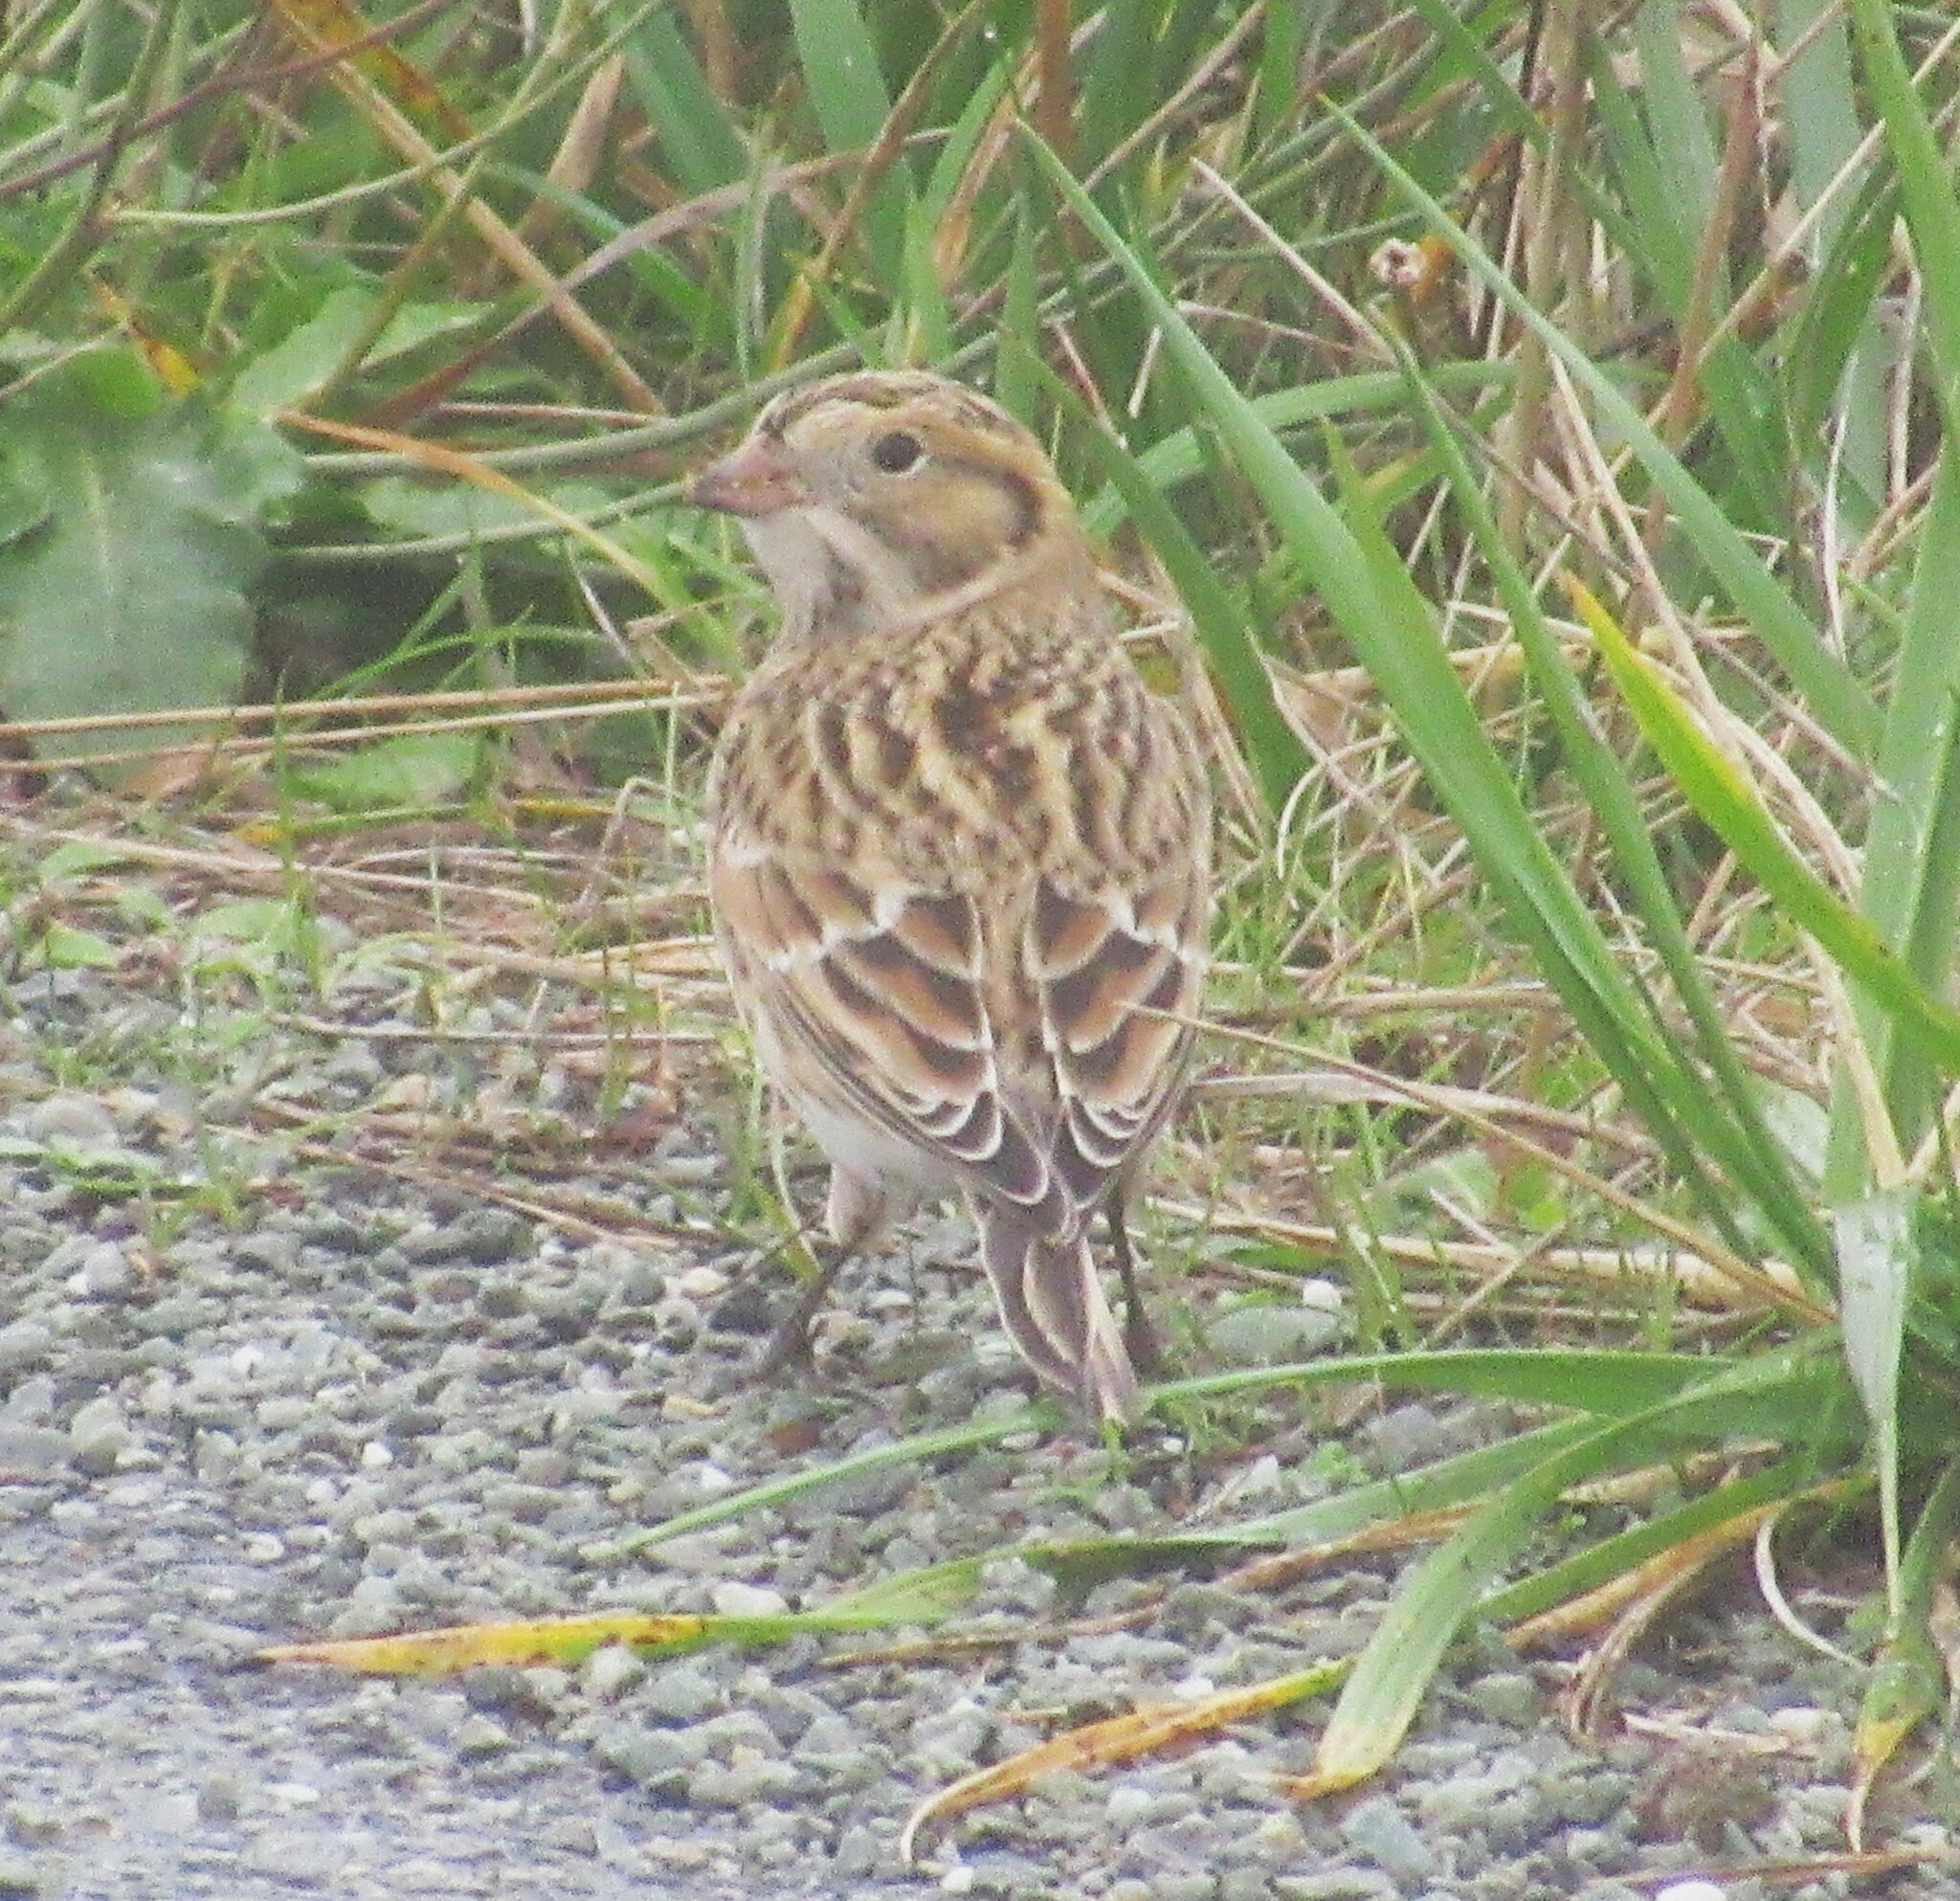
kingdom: Animalia
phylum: Chordata
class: Aves
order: Passeriformes
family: Calcariidae
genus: Calcarius
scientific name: Calcarius lapponicus
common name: Lapland longspur
